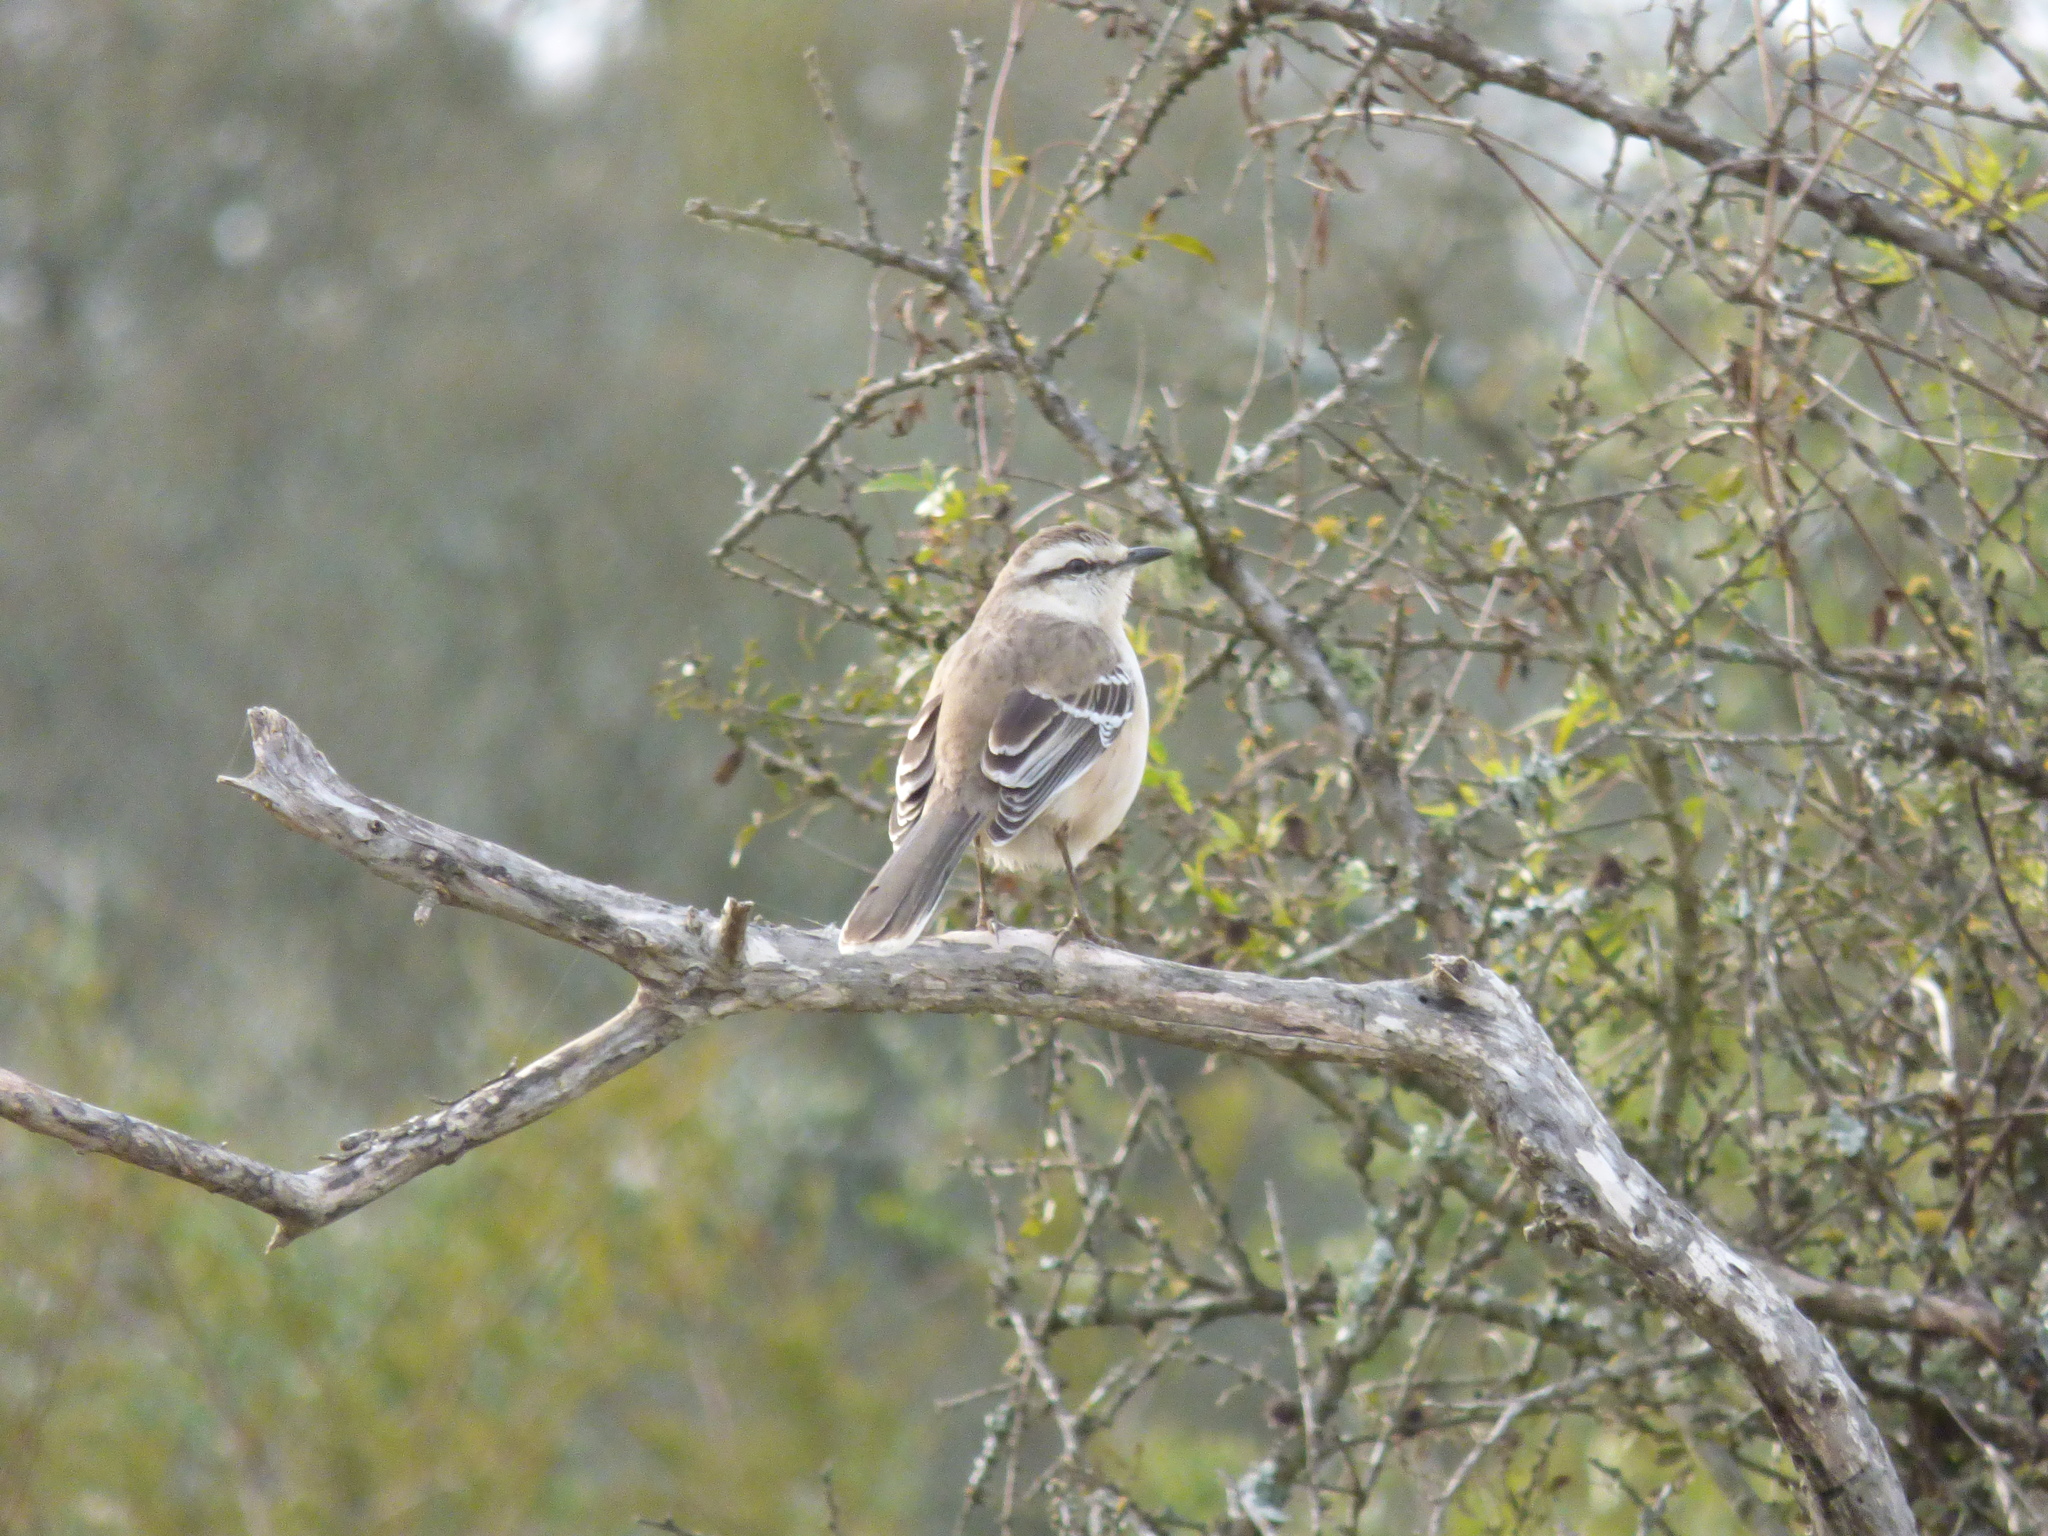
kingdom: Animalia
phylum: Chordata
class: Aves
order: Passeriformes
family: Mimidae
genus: Mimus
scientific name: Mimus saturninus
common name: Chalk-browed mockingbird
